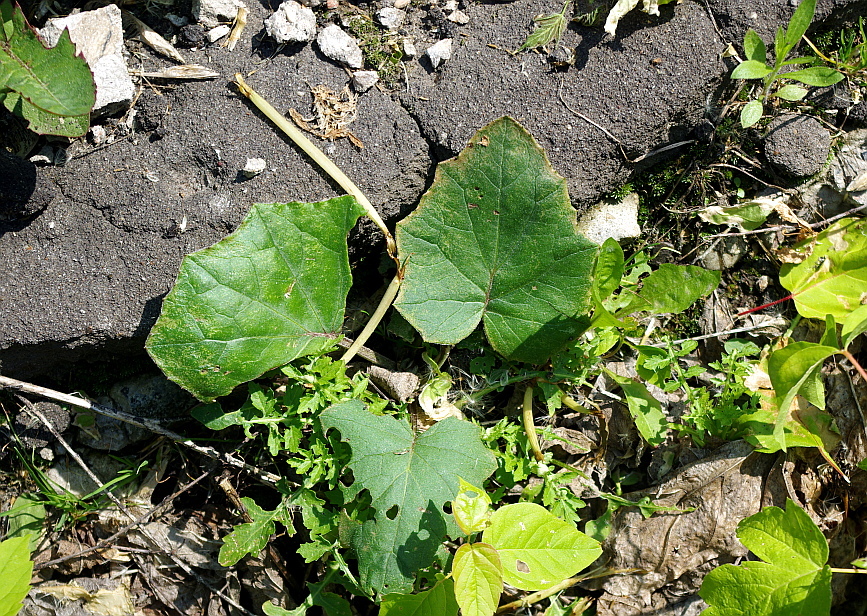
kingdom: Plantae
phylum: Tracheophyta
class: Magnoliopsida
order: Asterales
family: Asteraceae
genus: Tussilago
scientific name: Tussilago farfara
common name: Coltsfoot
